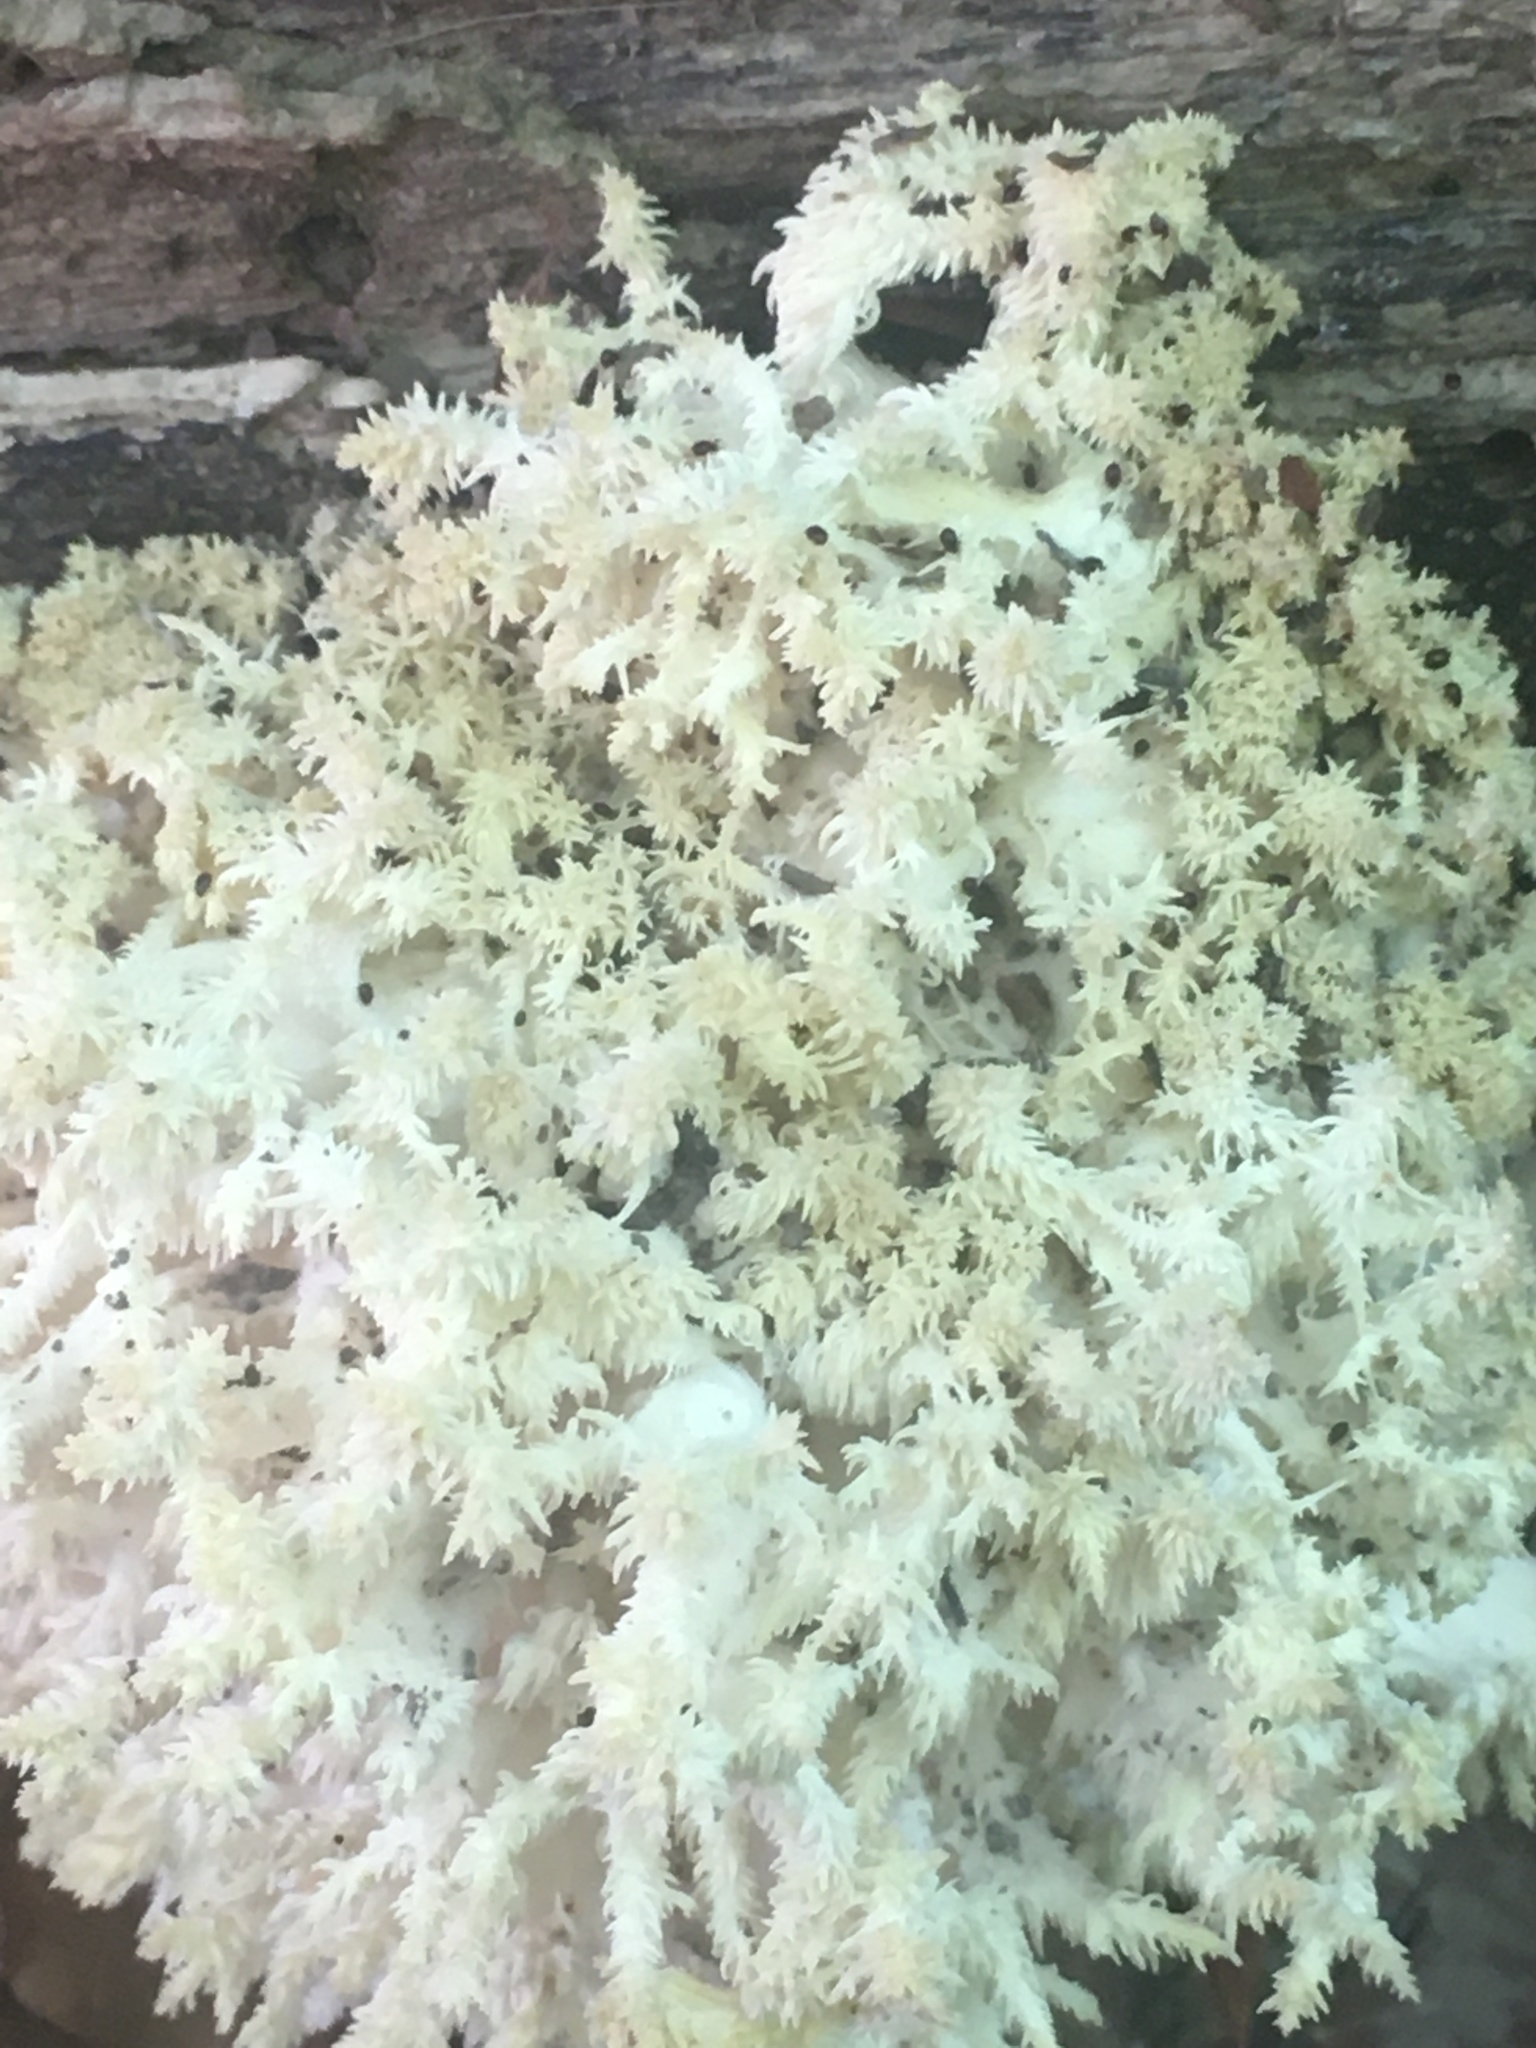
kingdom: Fungi
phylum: Basidiomycota
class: Agaricomycetes
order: Russulales
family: Hericiaceae
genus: Hericium
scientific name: Hericium coralloides
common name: Coral tooth
